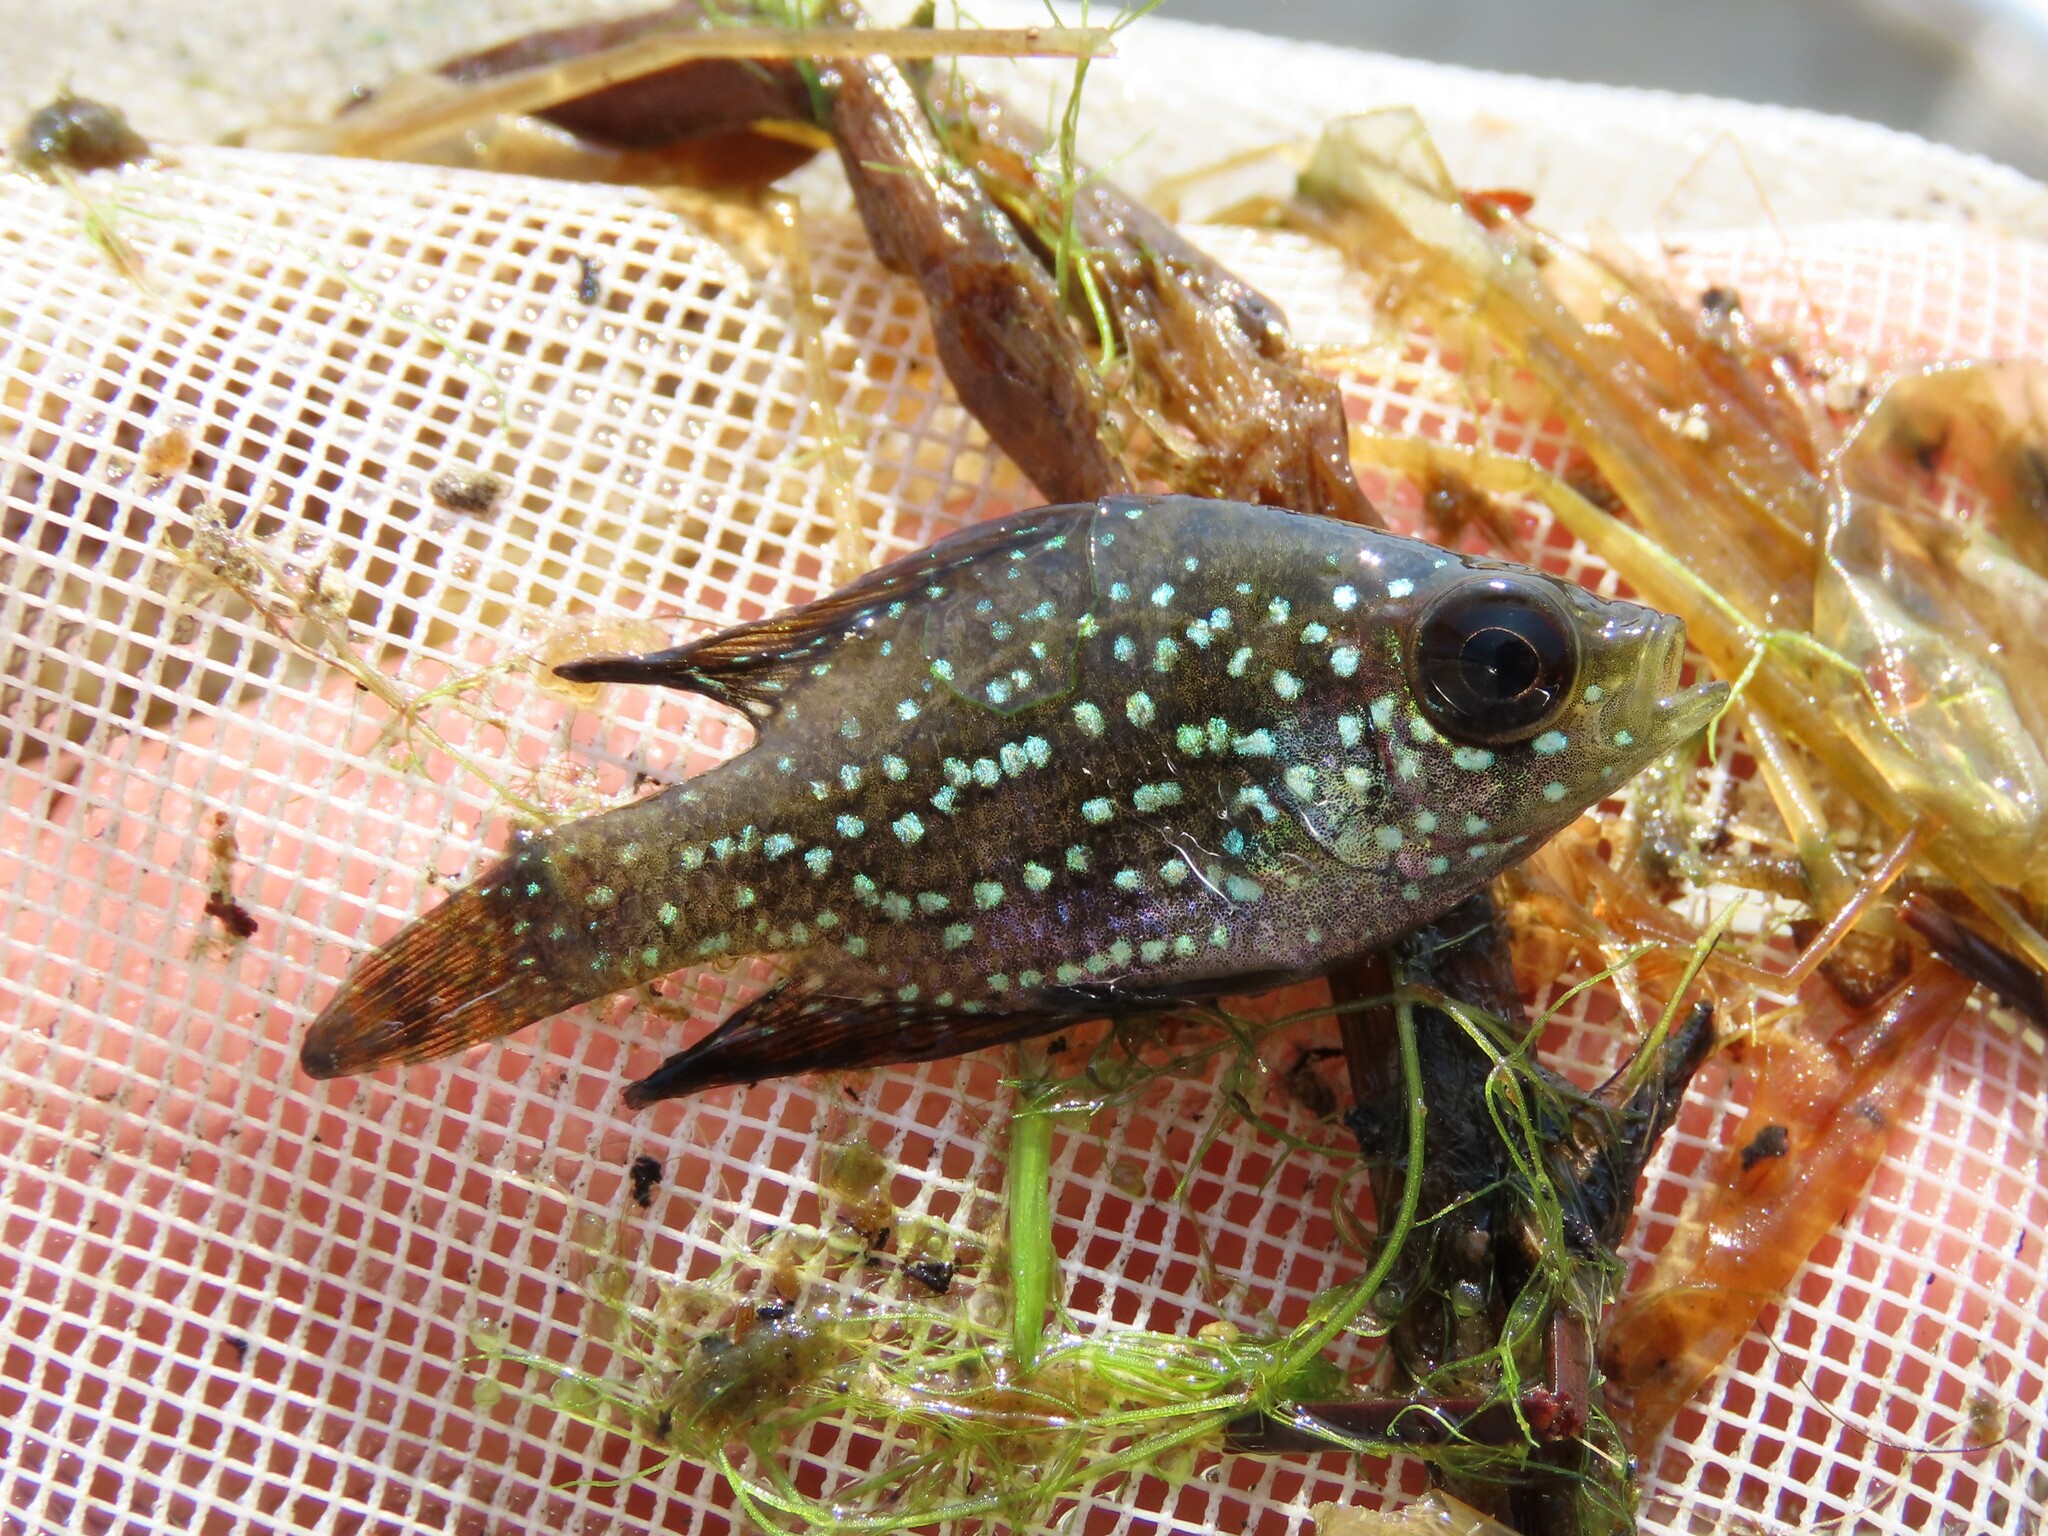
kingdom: Animalia
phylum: Chordata
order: Perciformes
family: Centrarchidae
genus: Enneacanthus
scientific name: Enneacanthus gloriosus
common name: Bluespotted sunfish
